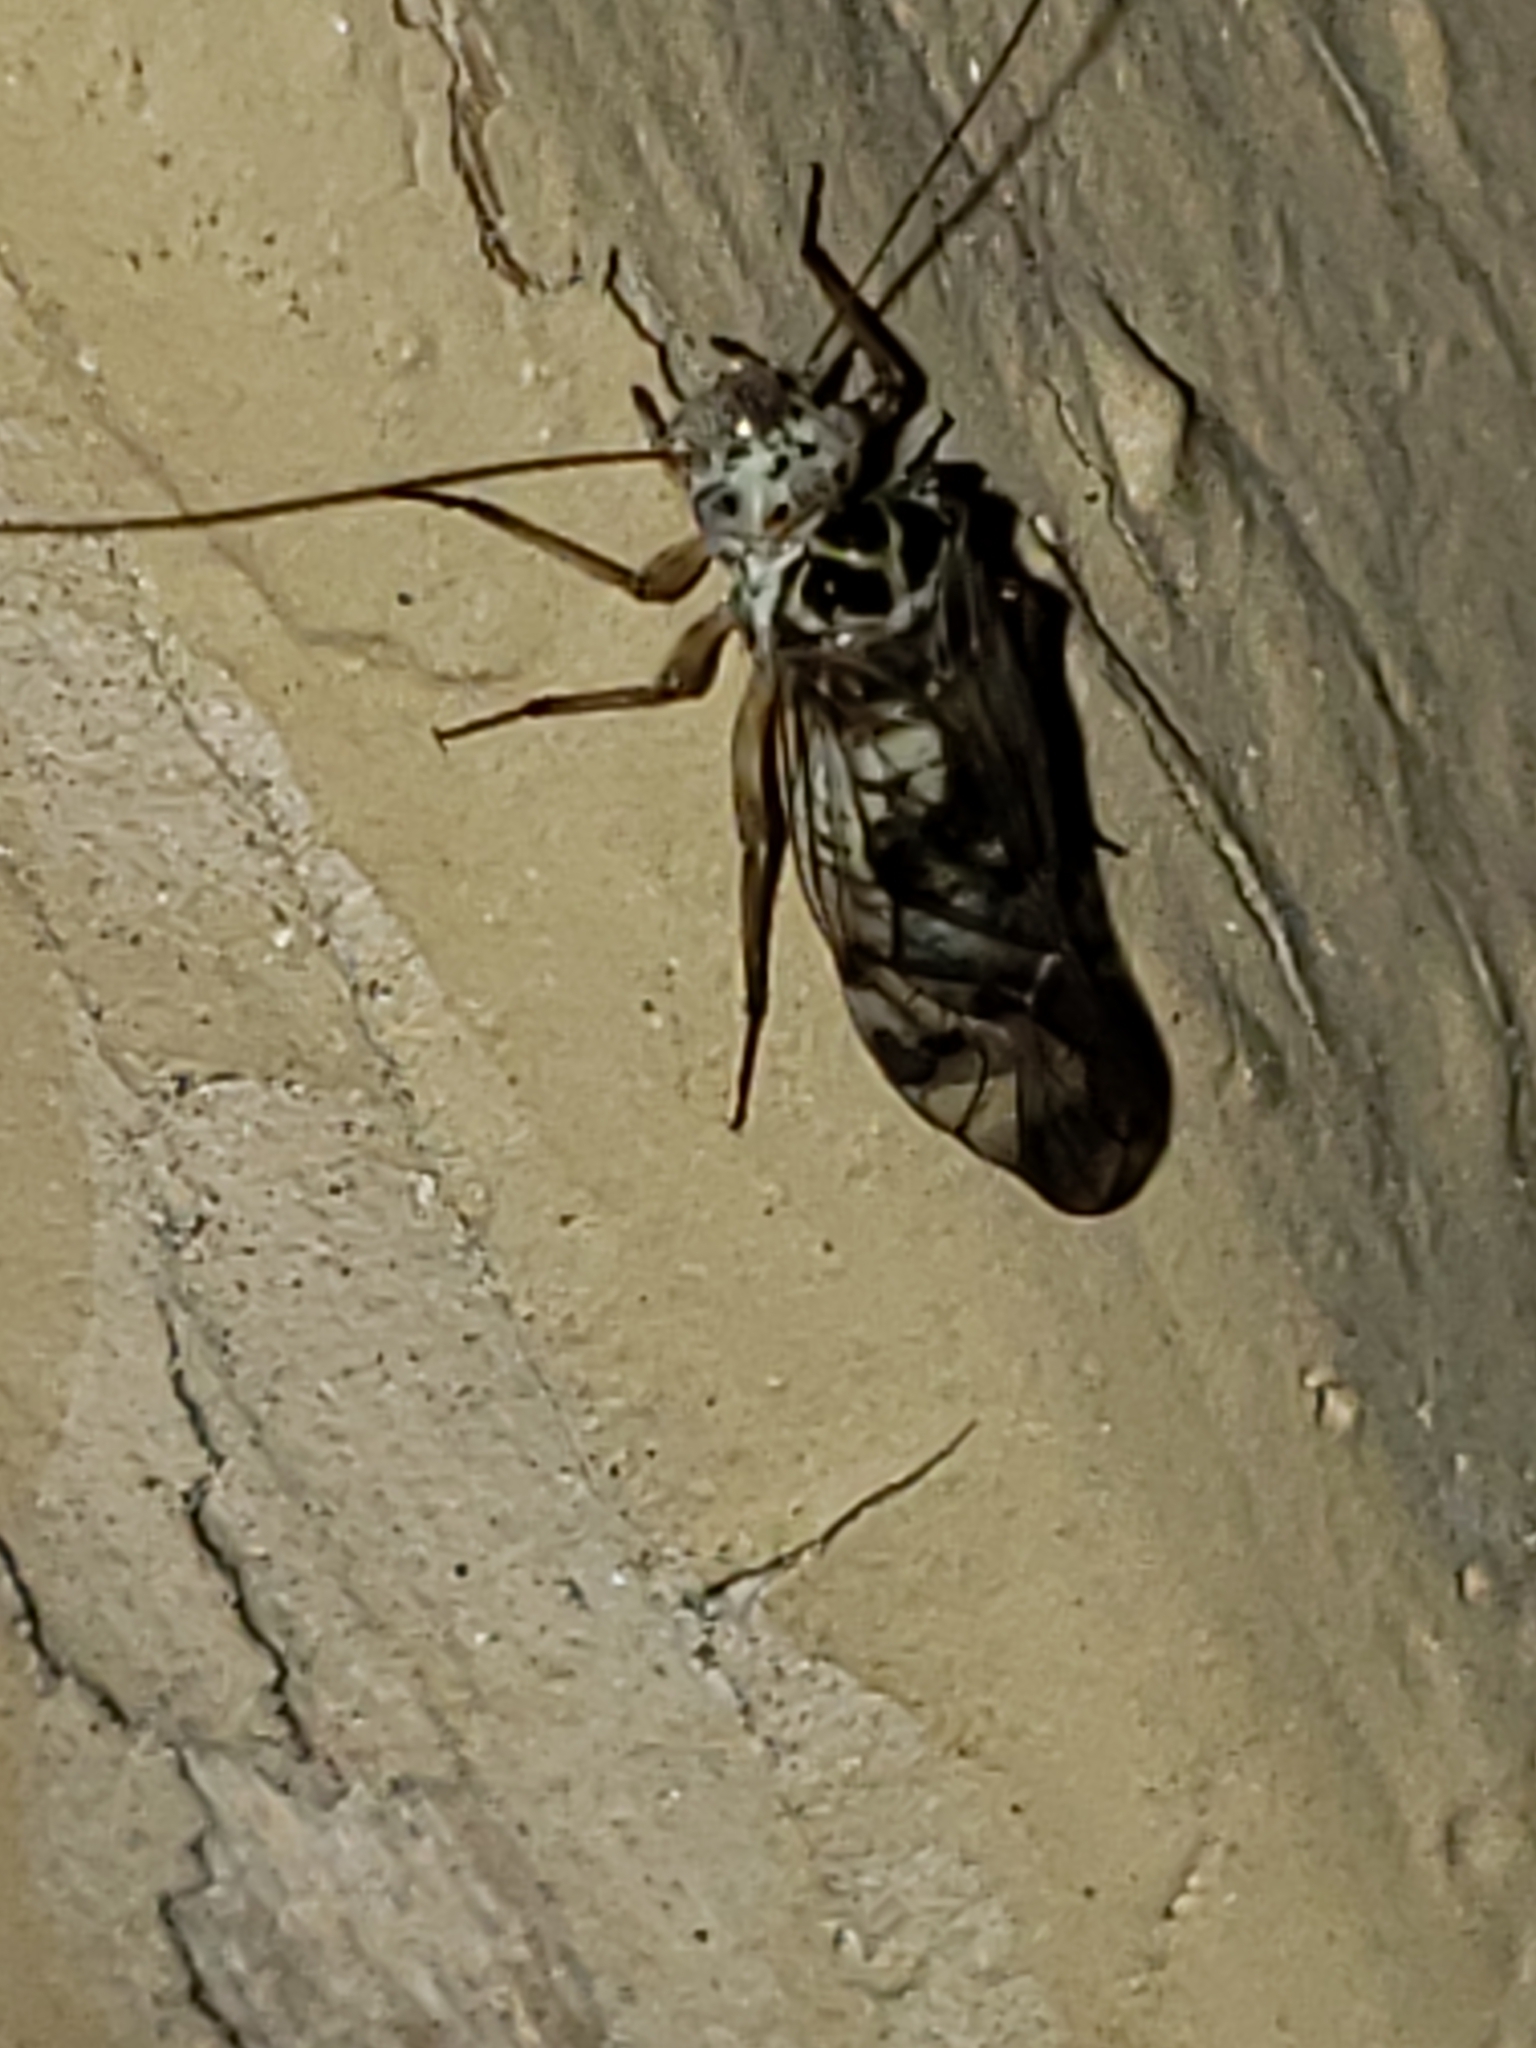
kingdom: Animalia
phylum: Arthropoda
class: Insecta
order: Psocodea
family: Psocidae
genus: Metylophorus
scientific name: Metylophorus novaescotiae
